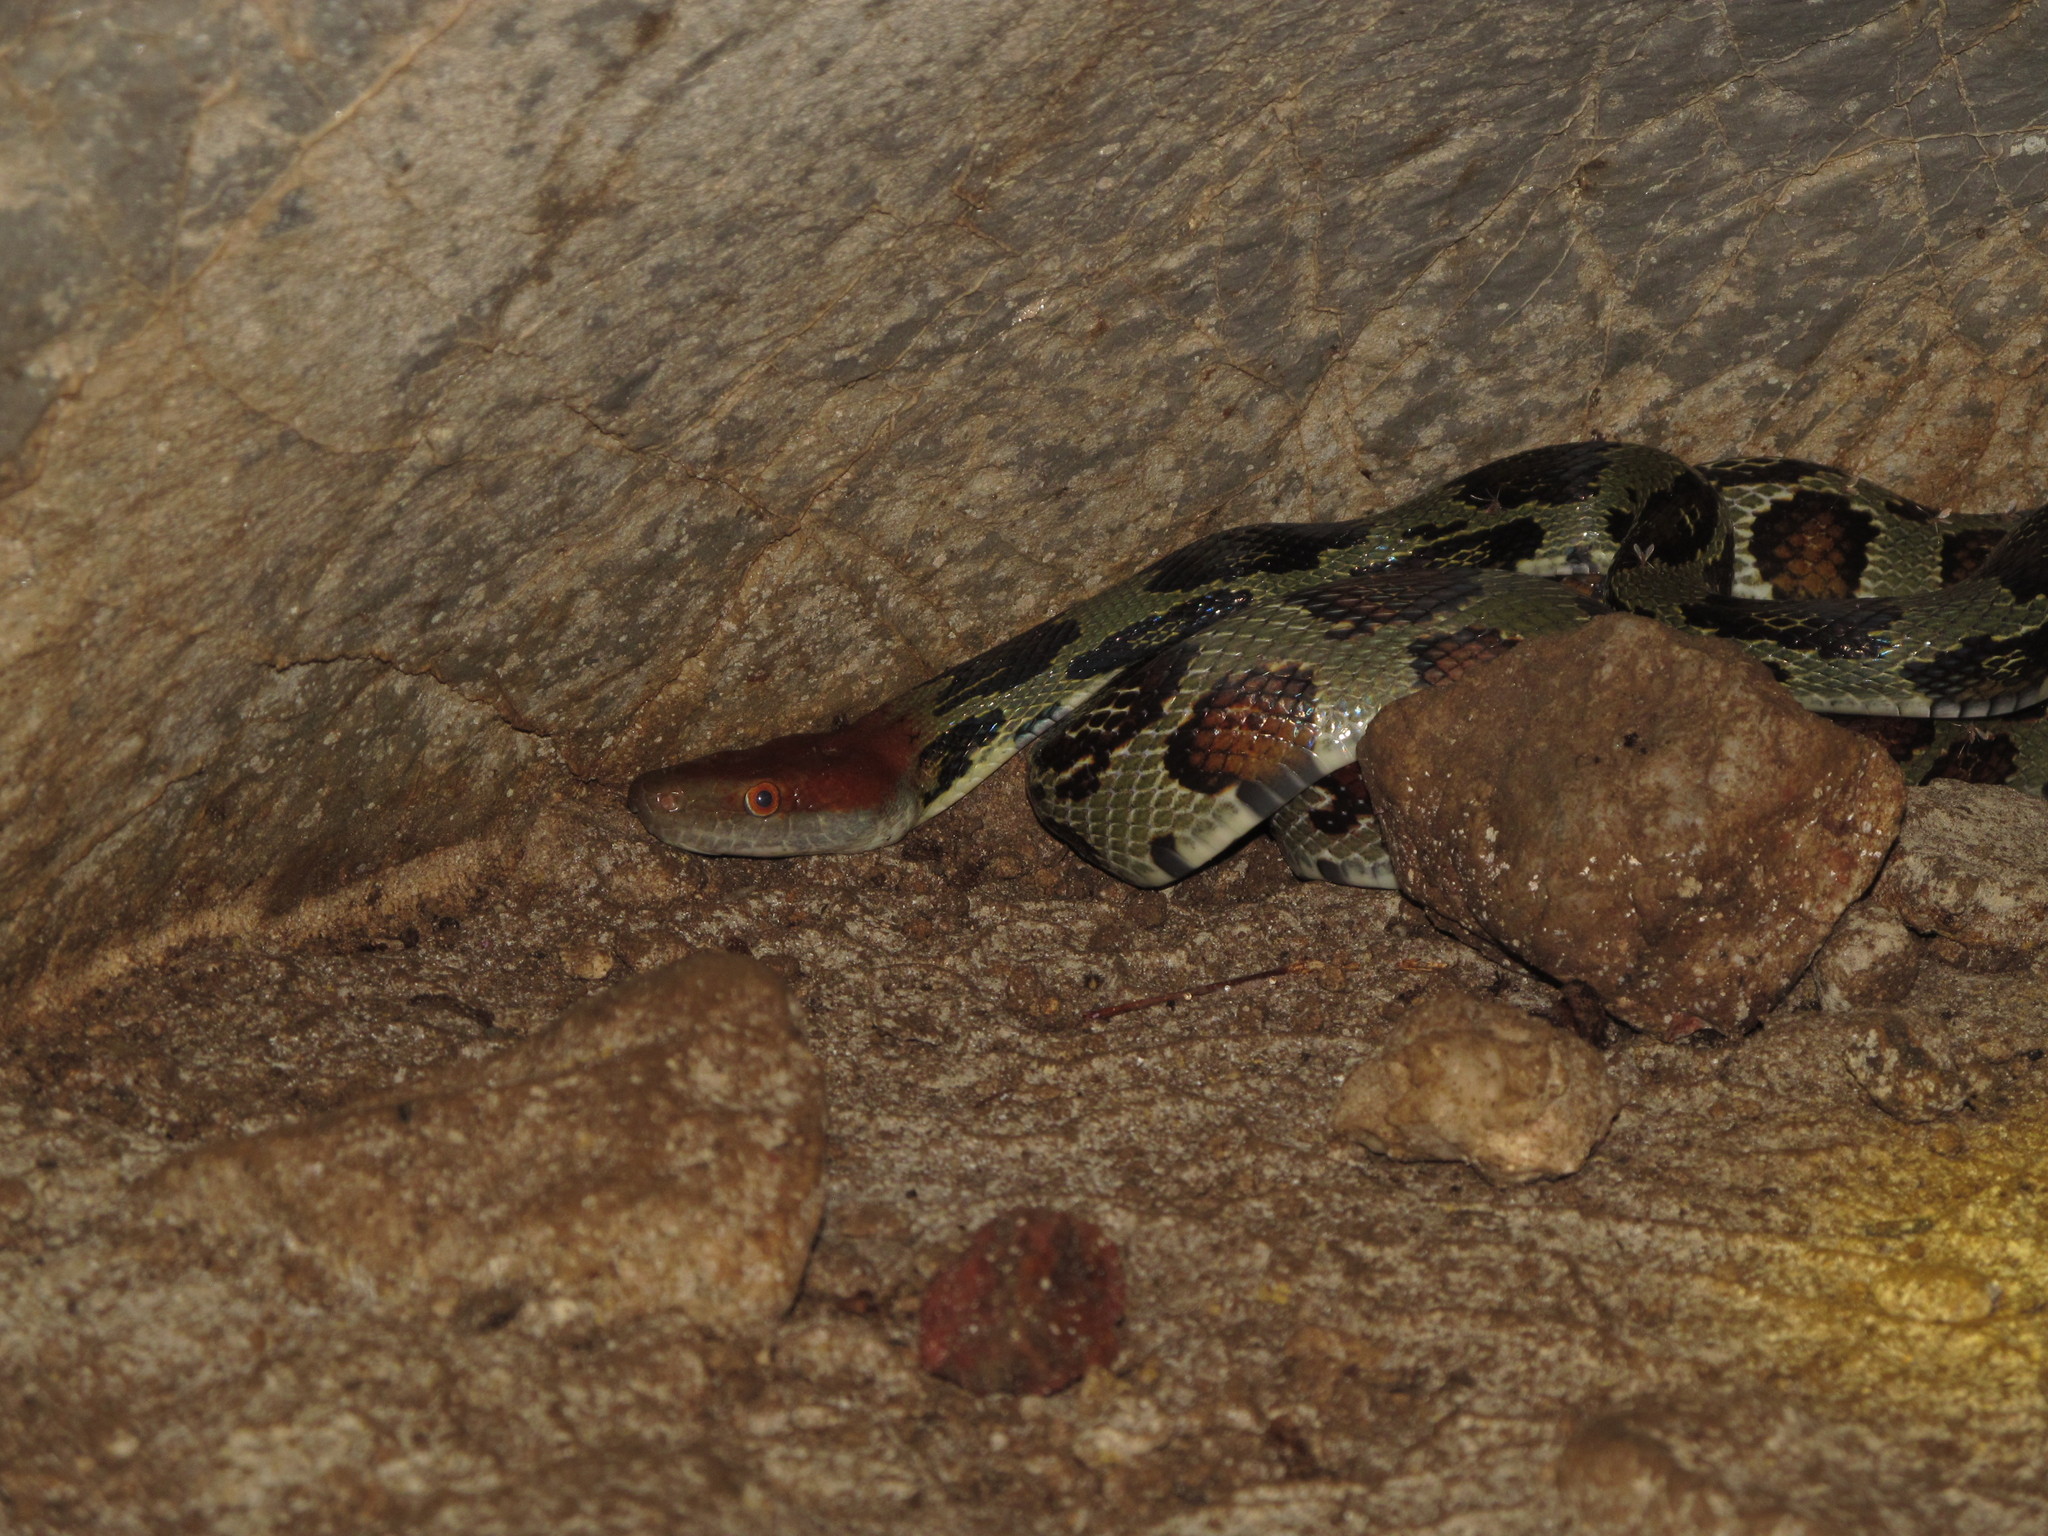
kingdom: Animalia
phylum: Chordata
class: Squamata
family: Colubridae
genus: Elaphe
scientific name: Elaphe moellendorffi
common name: Moellendorff's trinket snake
